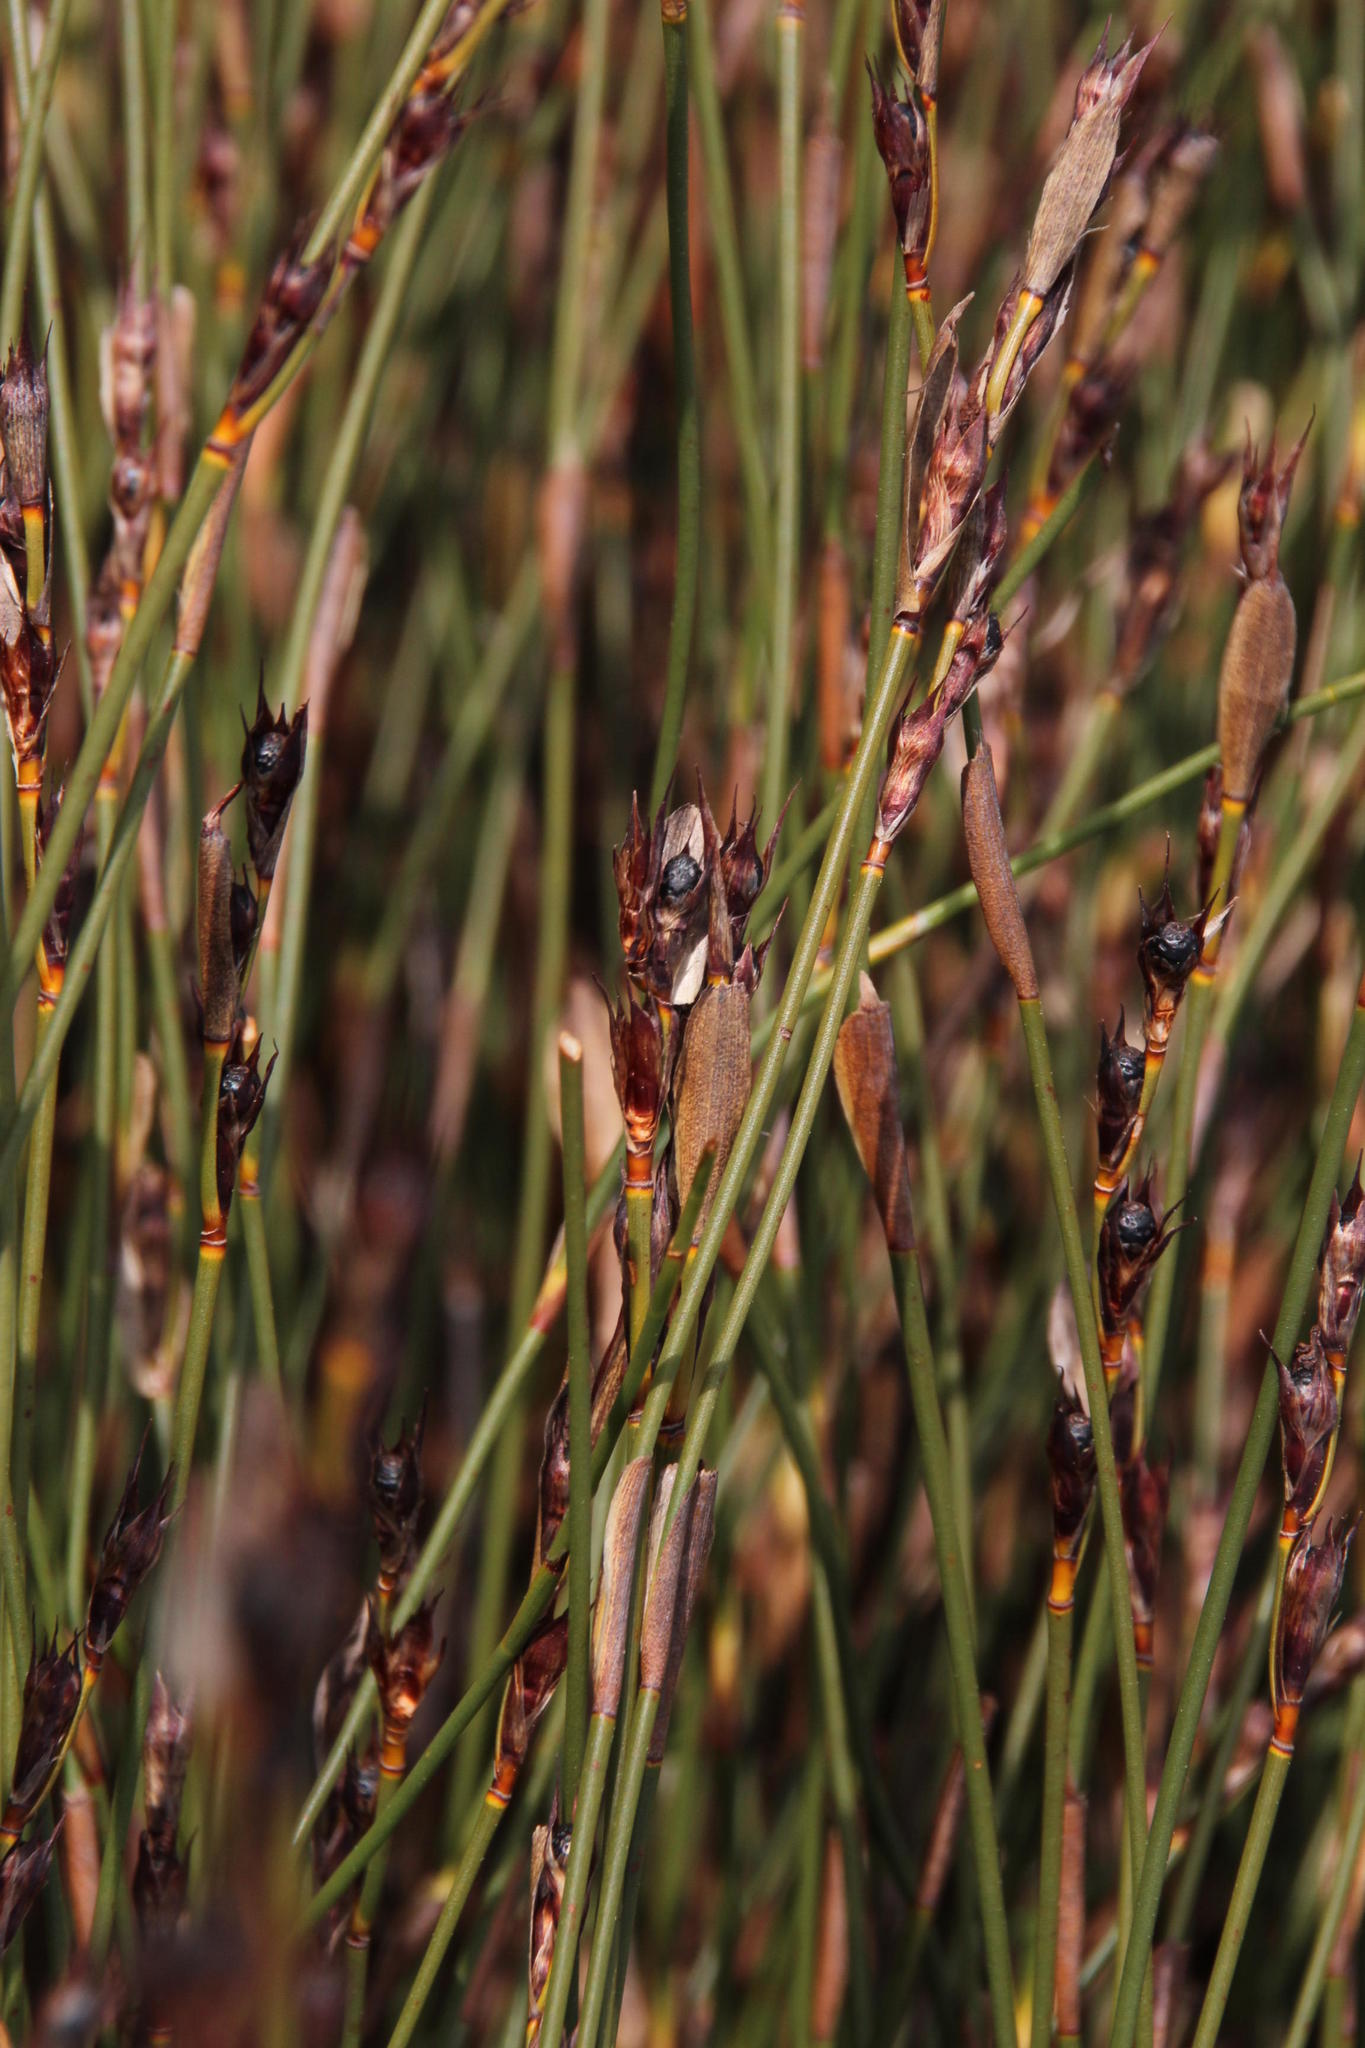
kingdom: Plantae
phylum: Tracheophyta
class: Liliopsida
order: Poales
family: Restionaceae
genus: Willdenowia
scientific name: Willdenowia sulcata
